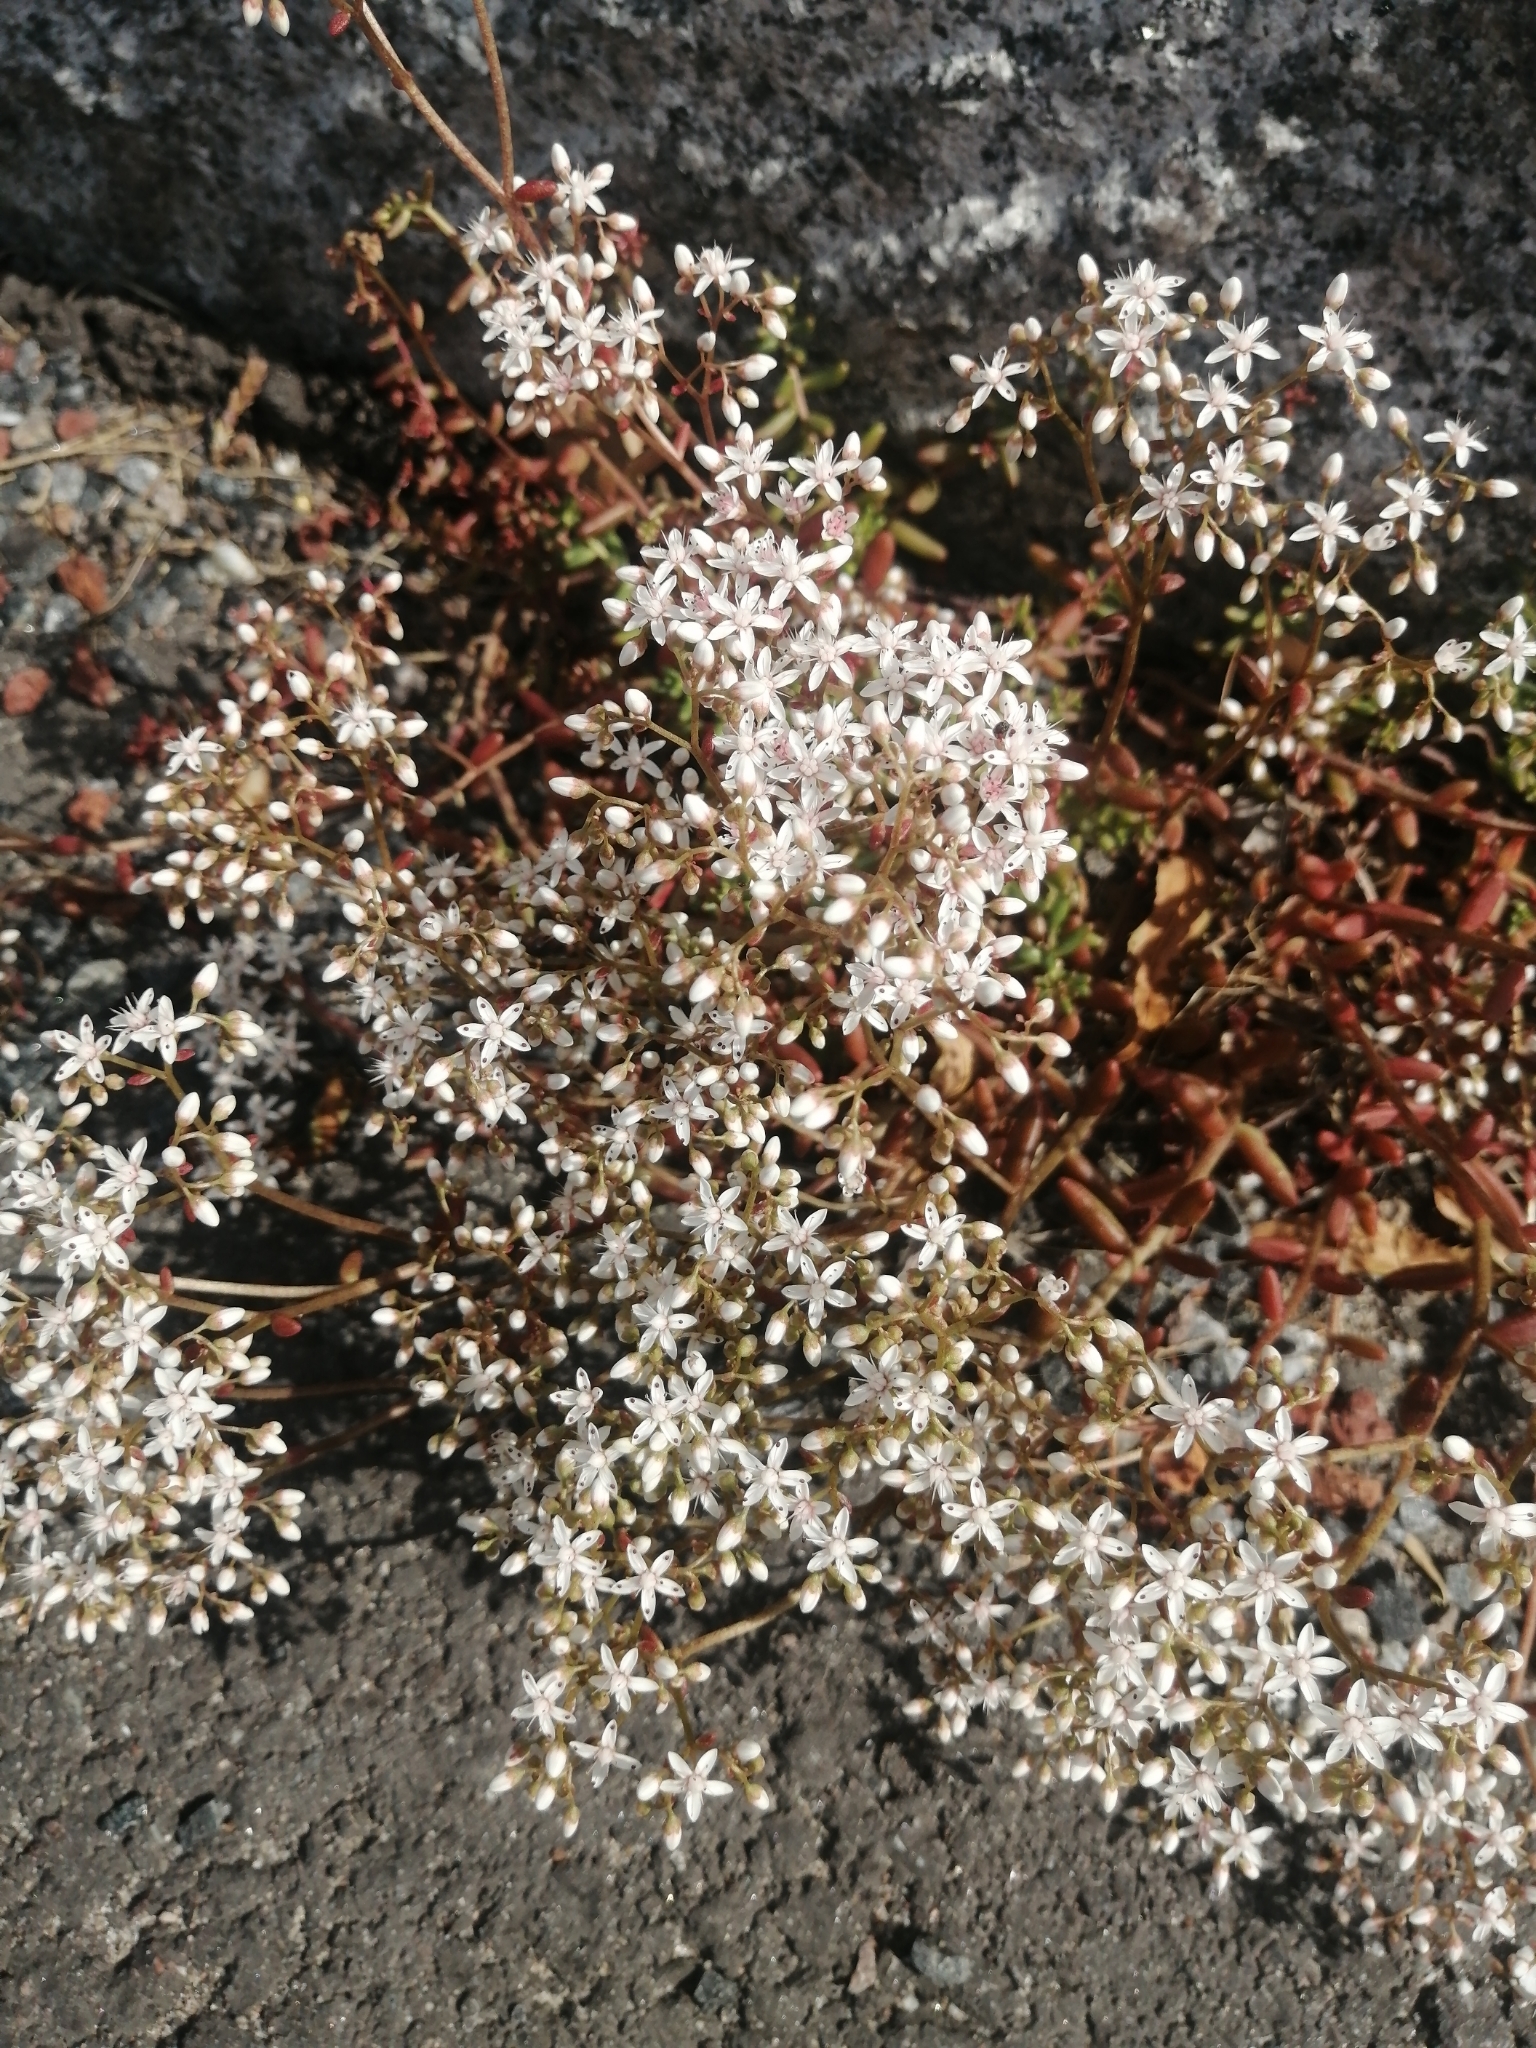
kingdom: Plantae
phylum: Tracheophyta
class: Magnoliopsida
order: Saxifragales
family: Crassulaceae
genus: Sedum
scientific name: Sedum album
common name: White stonecrop
